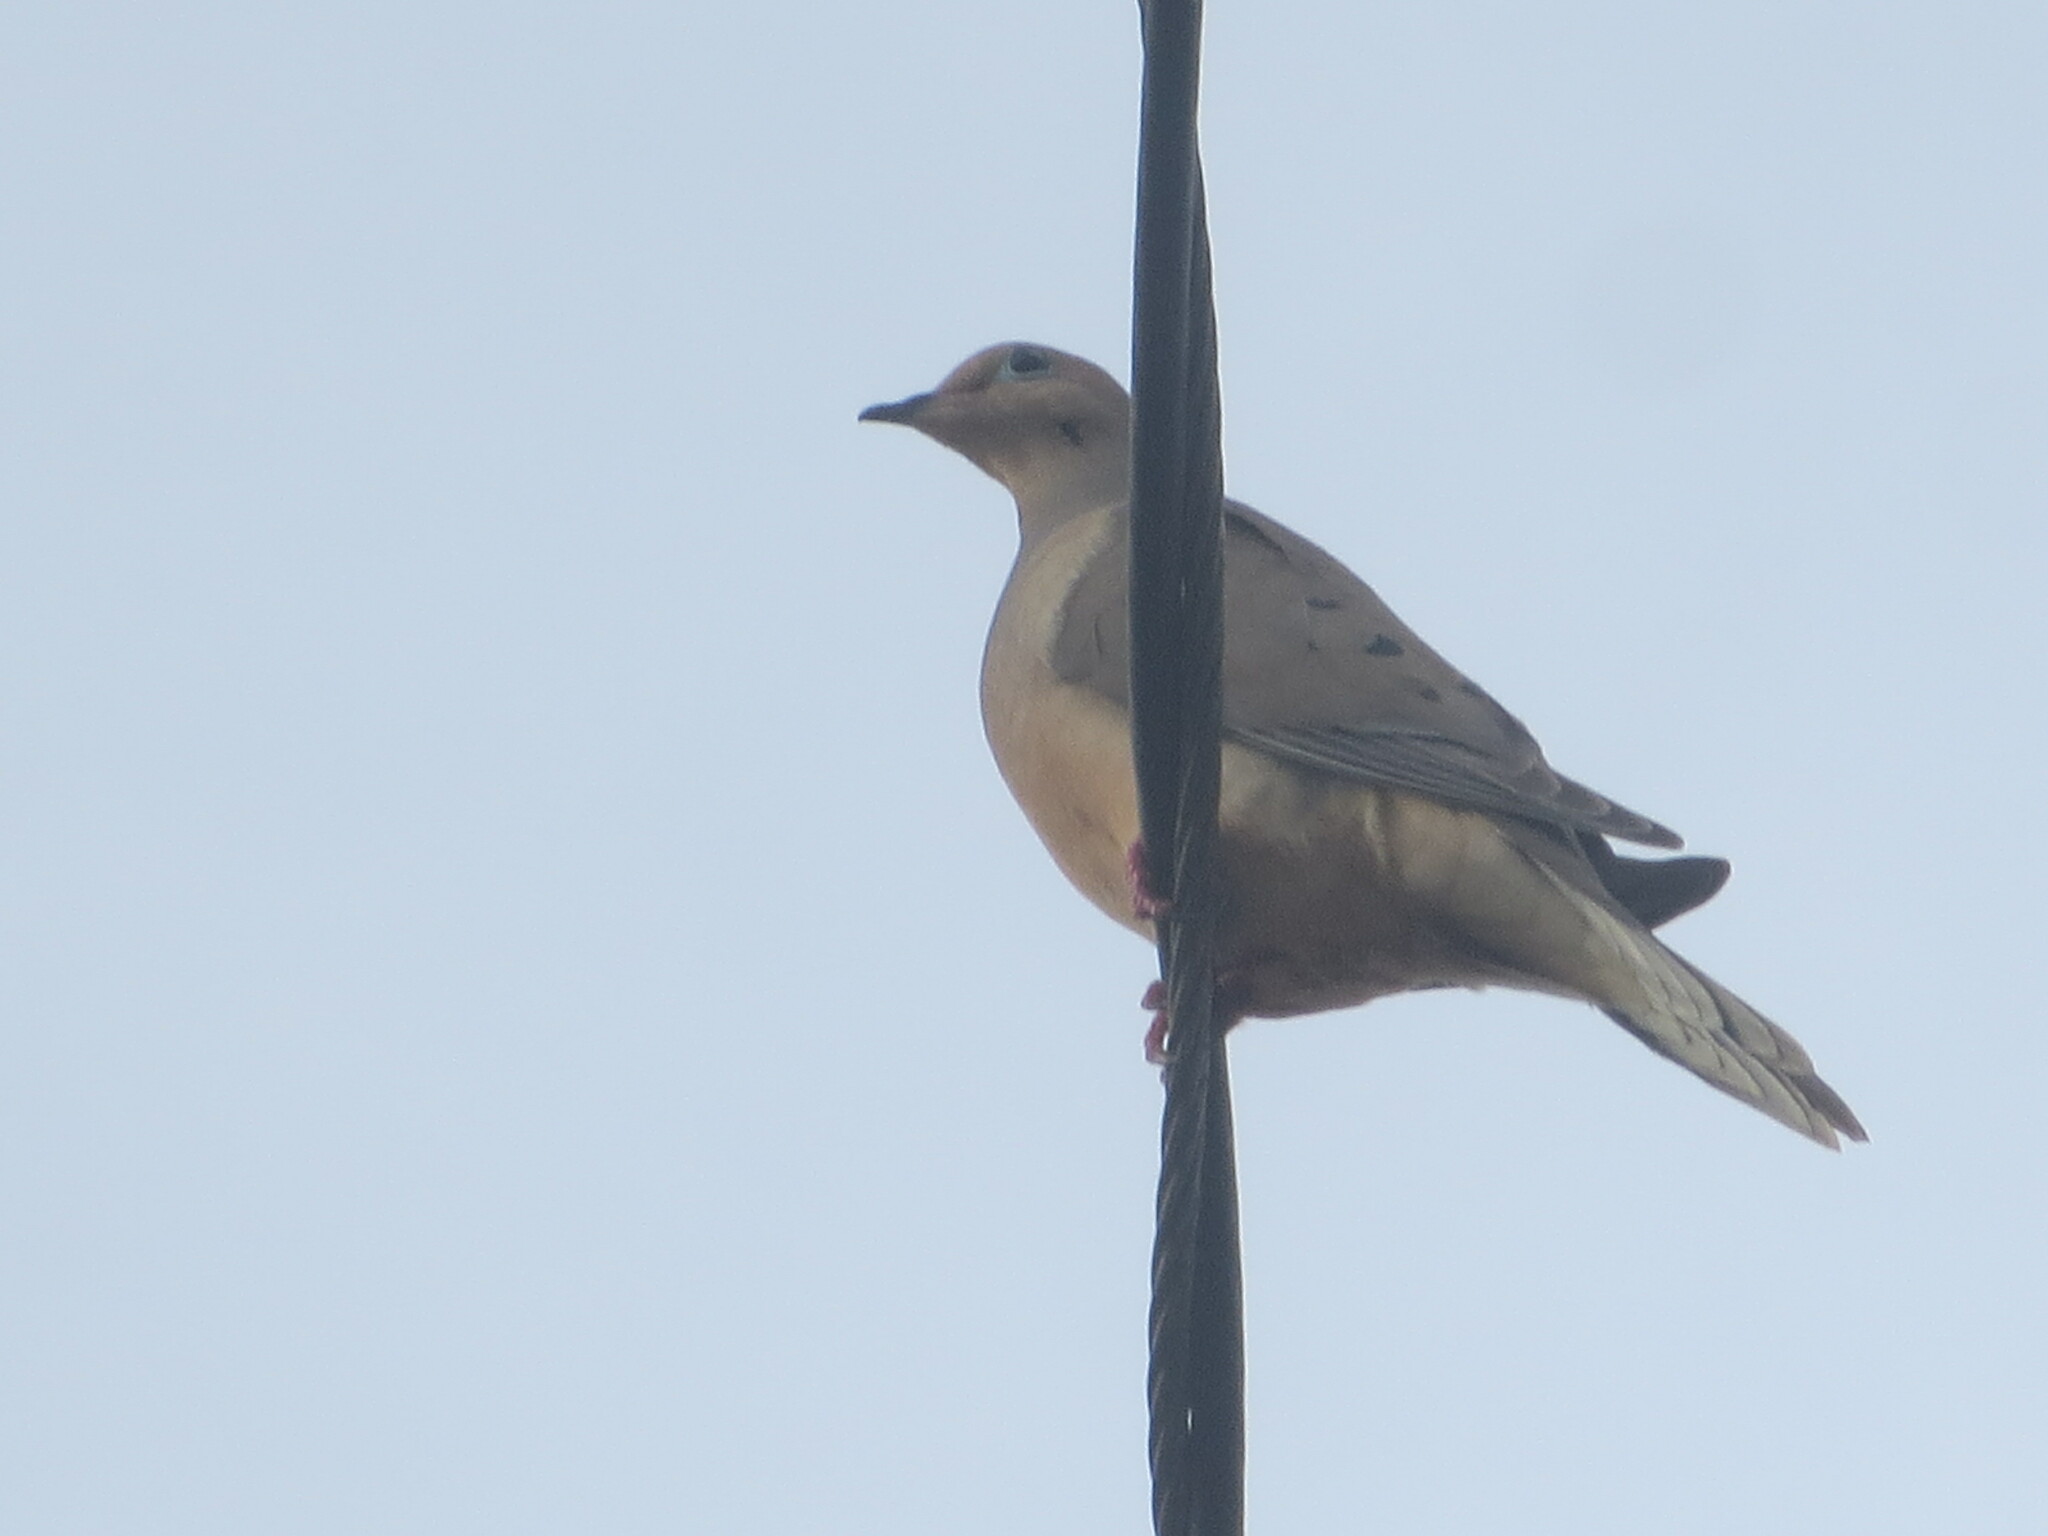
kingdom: Animalia
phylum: Chordata
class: Aves
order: Columbiformes
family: Columbidae
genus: Zenaida
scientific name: Zenaida macroura
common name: Mourning dove
